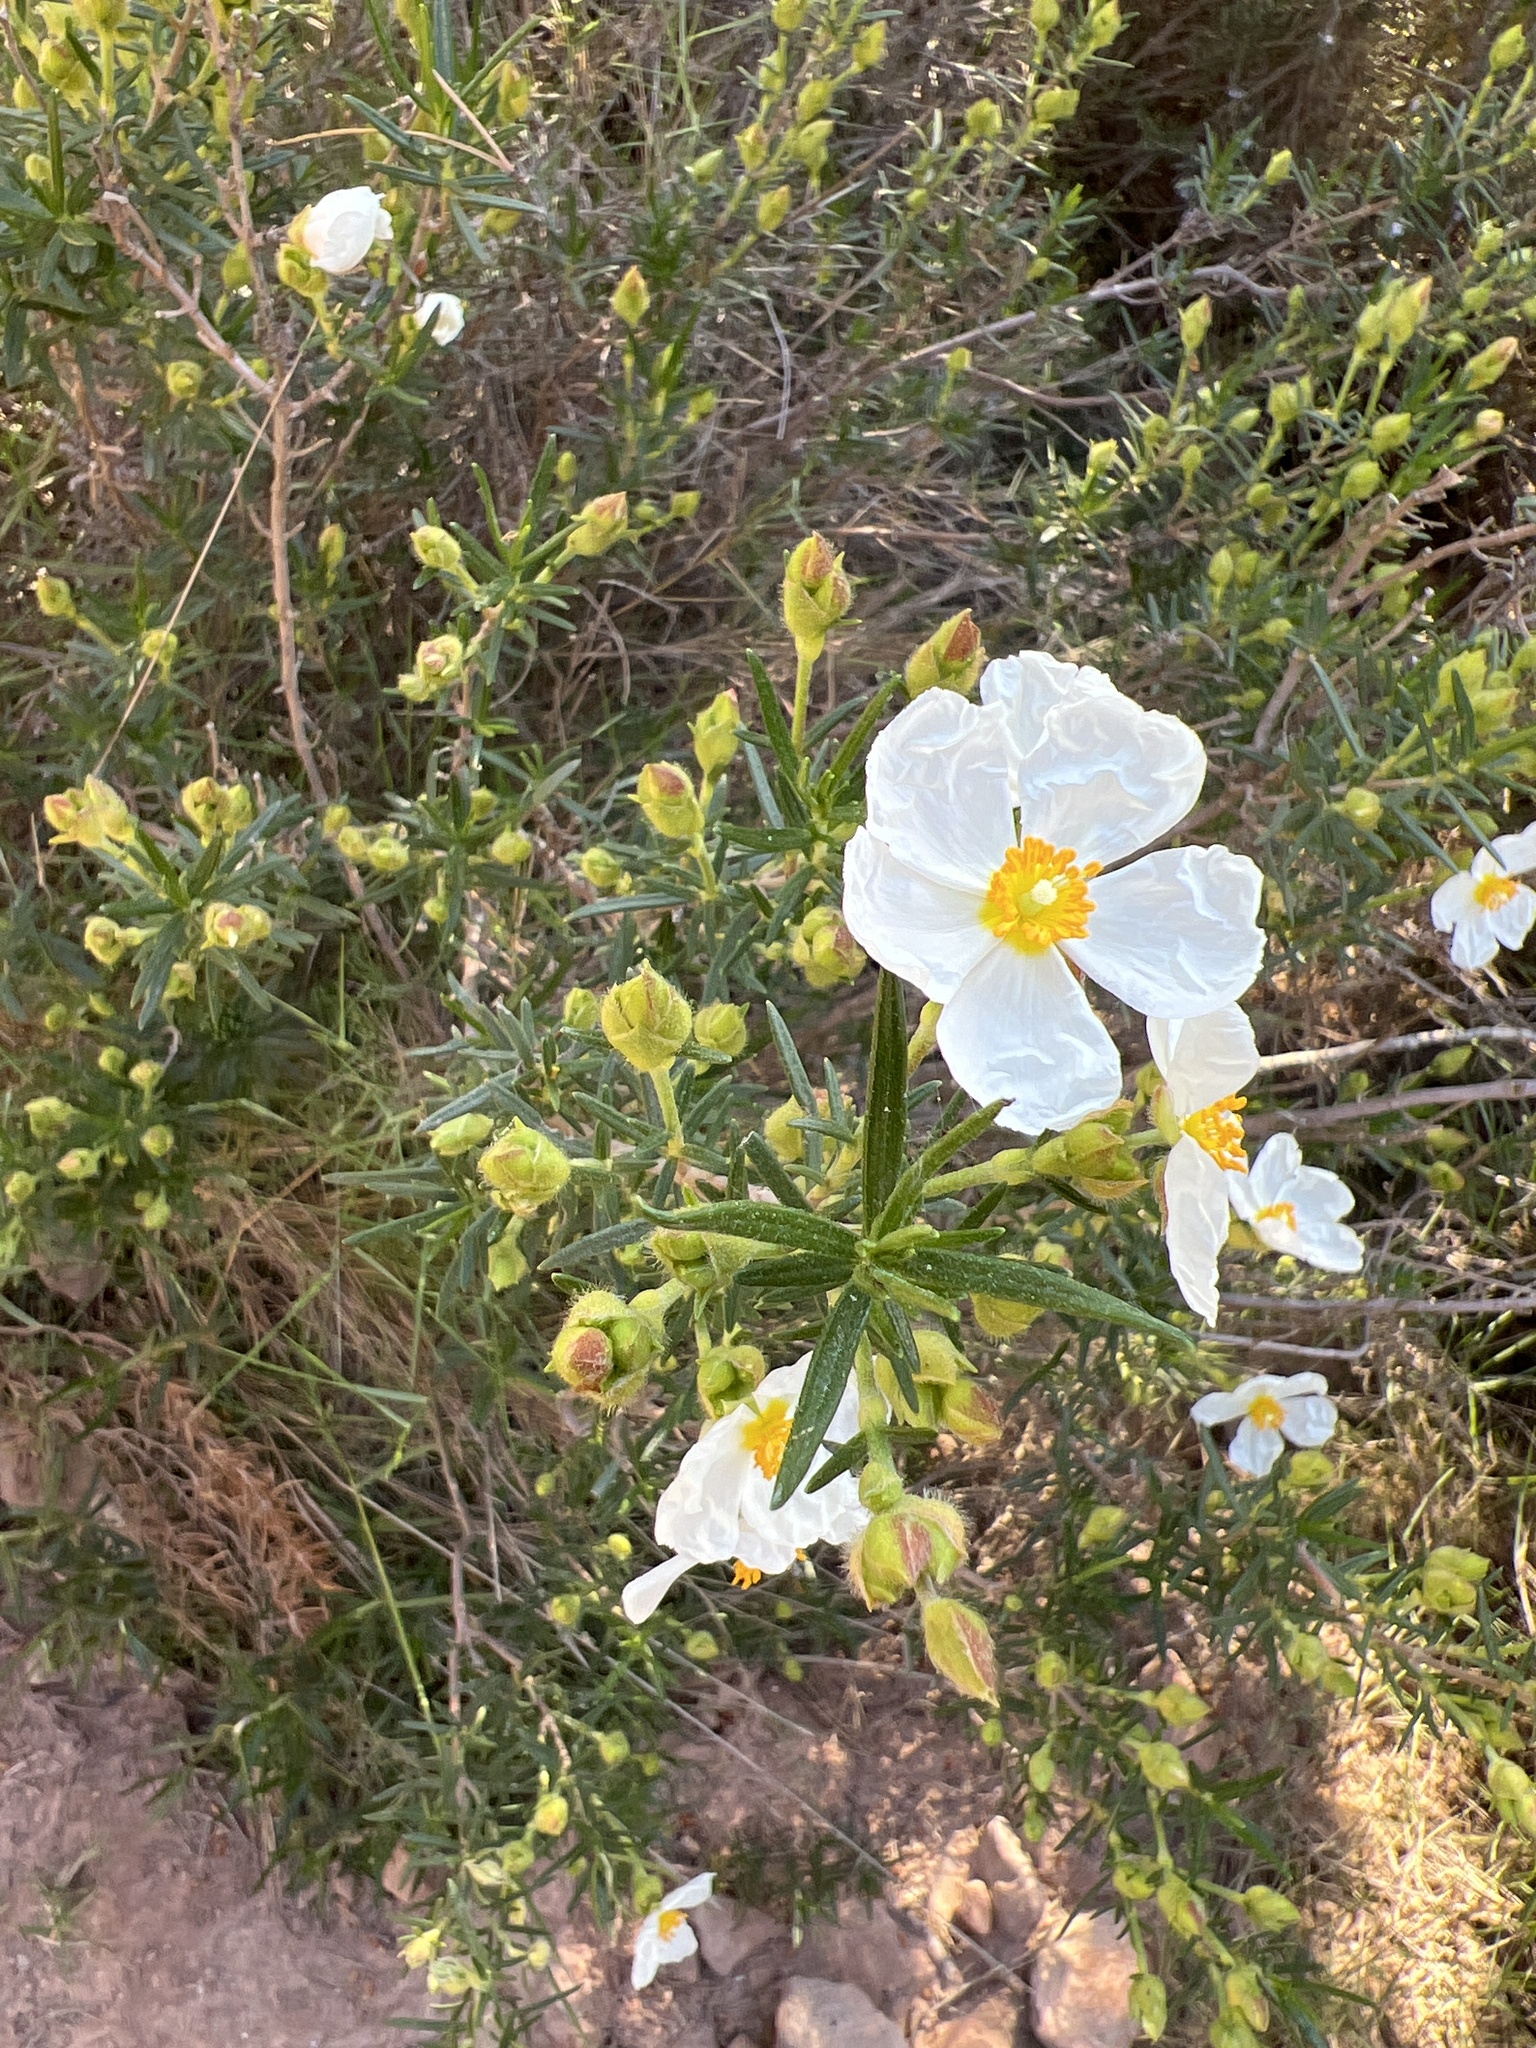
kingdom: Plantae
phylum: Tracheophyta
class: Magnoliopsida
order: Malvales
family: Cistaceae
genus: Cistus
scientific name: Cistus clusii
